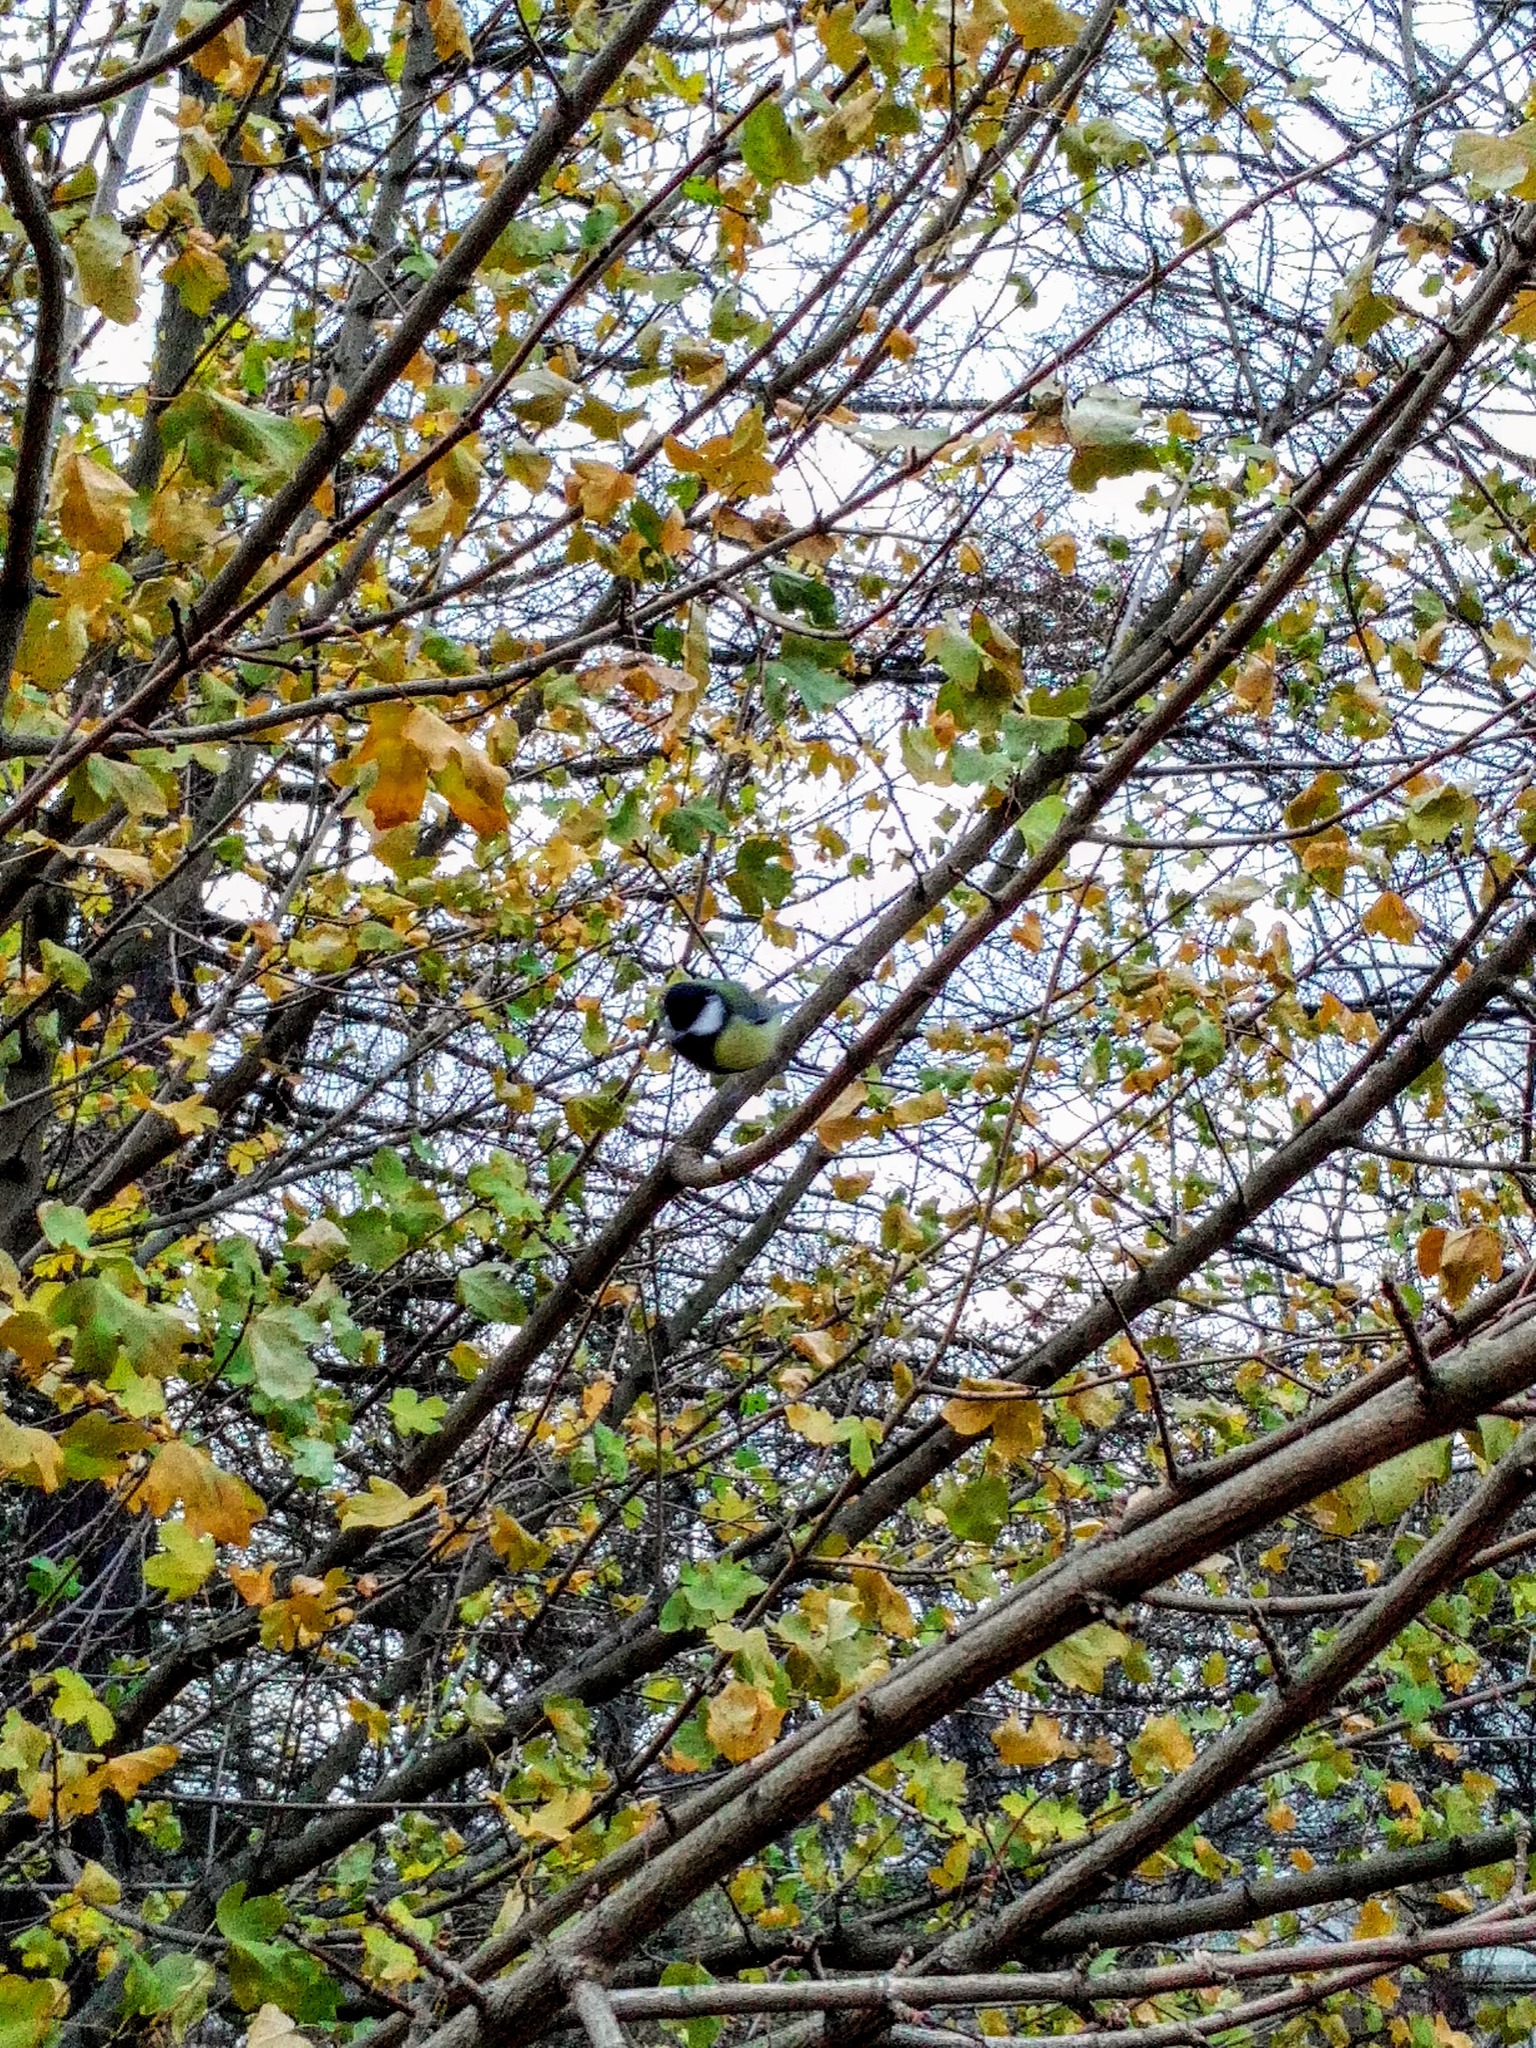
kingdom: Animalia
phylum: Chordata
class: Aves
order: Passeriformes
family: Paridae
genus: Parus
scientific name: Parus major
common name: Great tit
